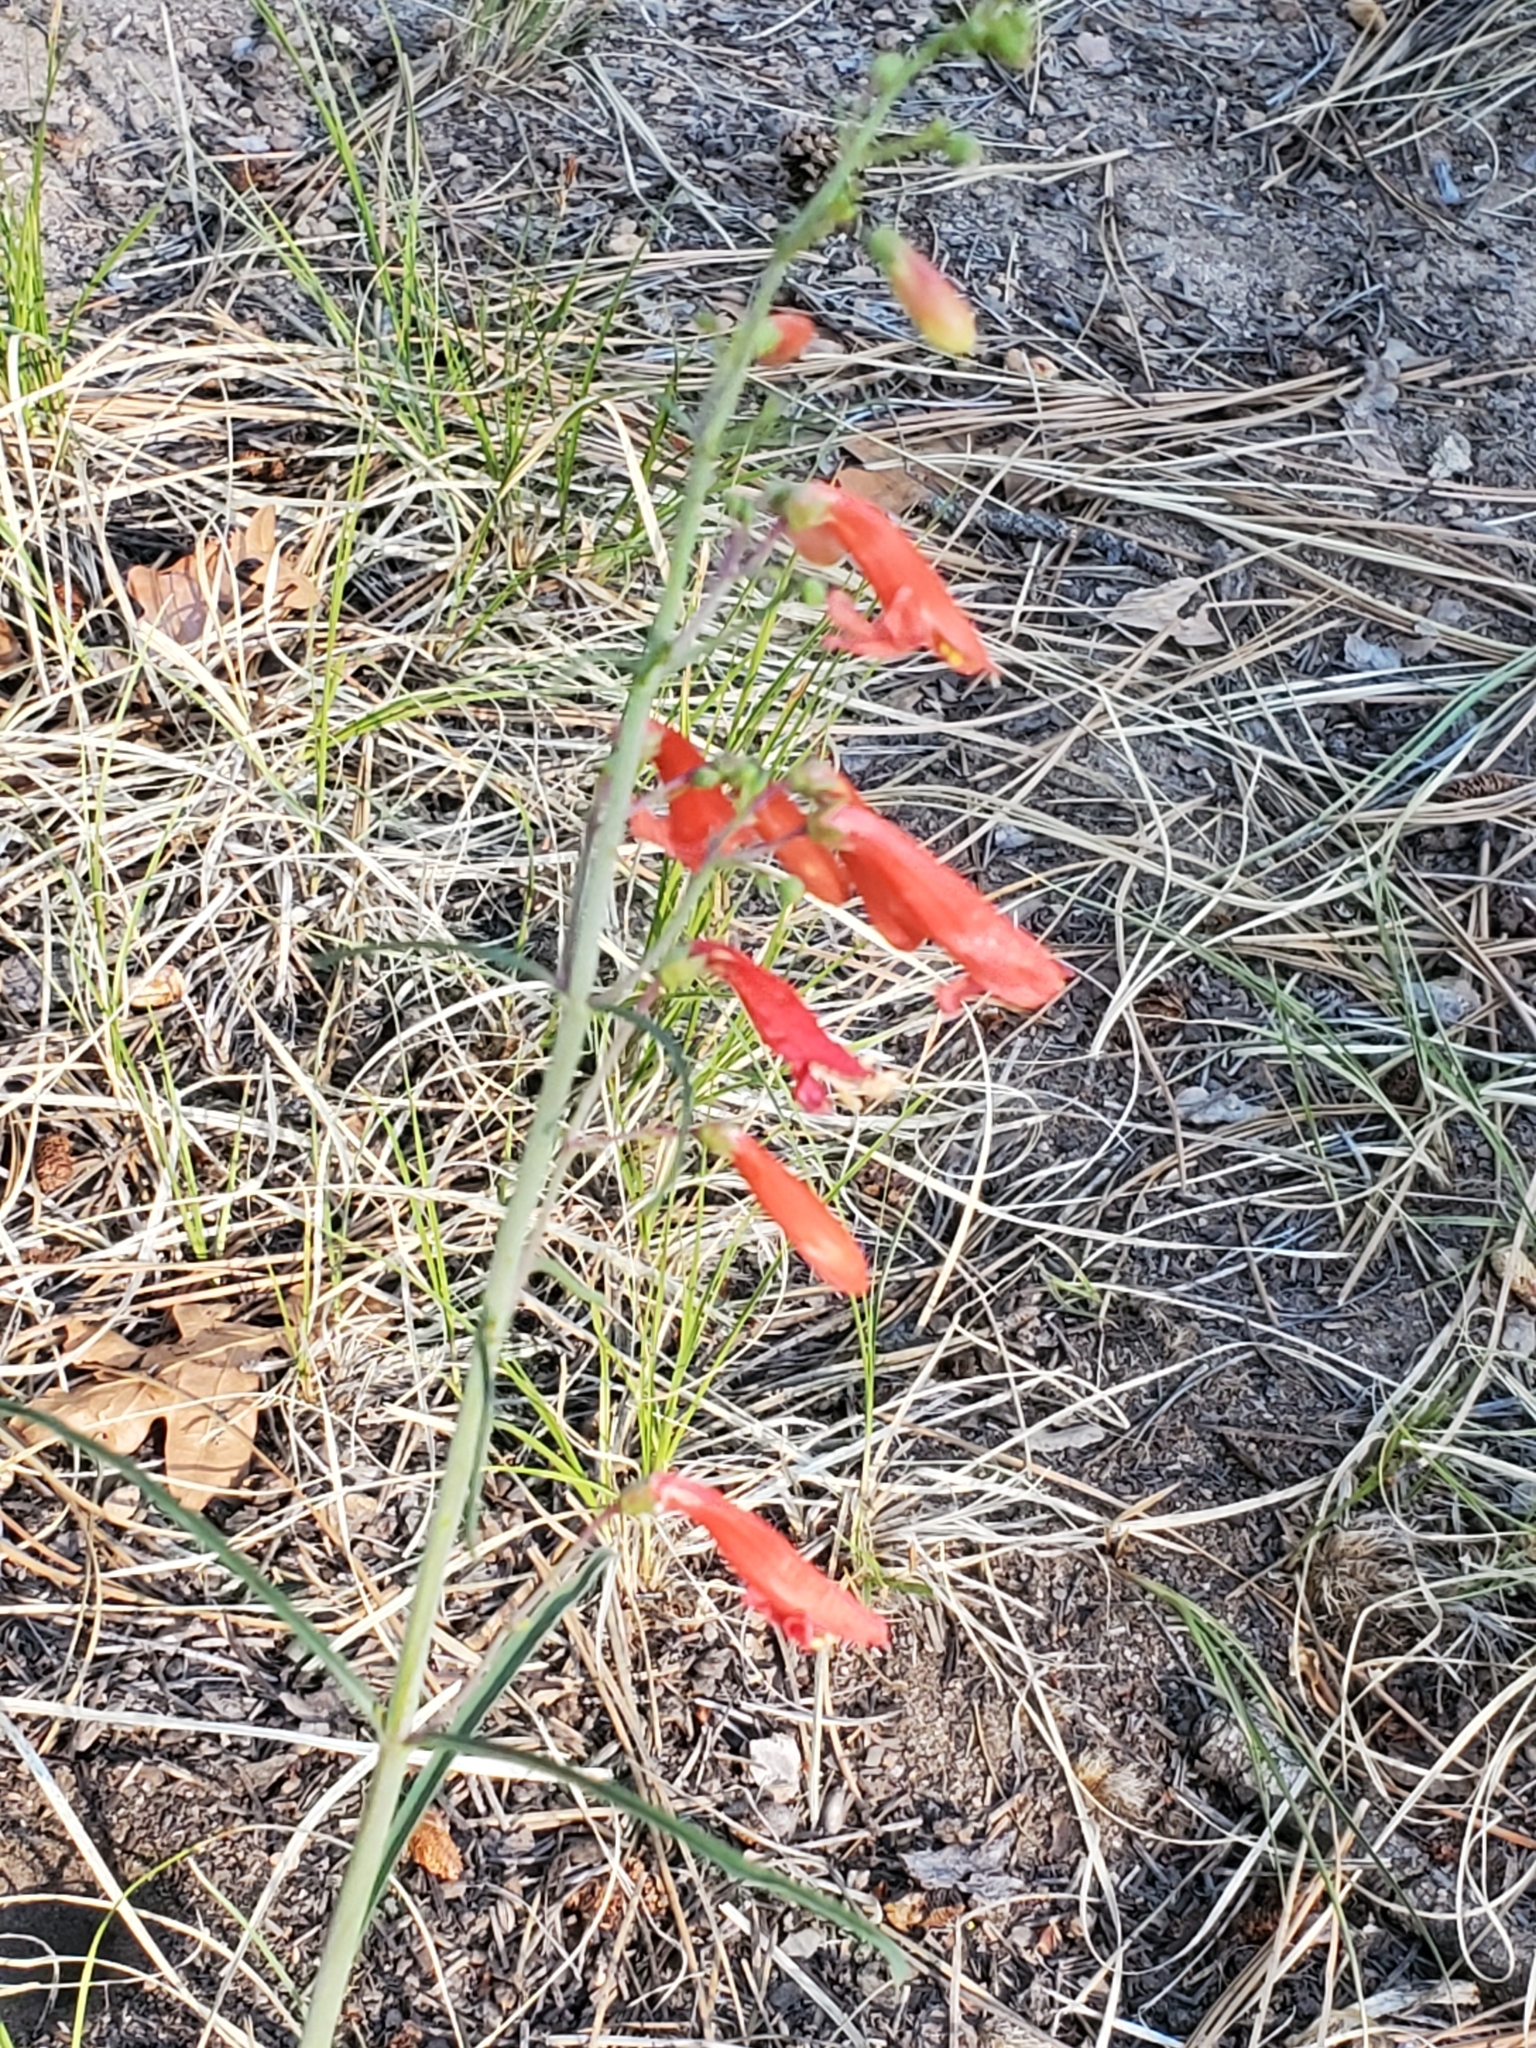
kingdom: Plantae
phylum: Tracheophyta
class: Magnoliopsida
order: Lamiales
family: Plantaginaceae
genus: Penstemon
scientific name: Penstemon barbatus
